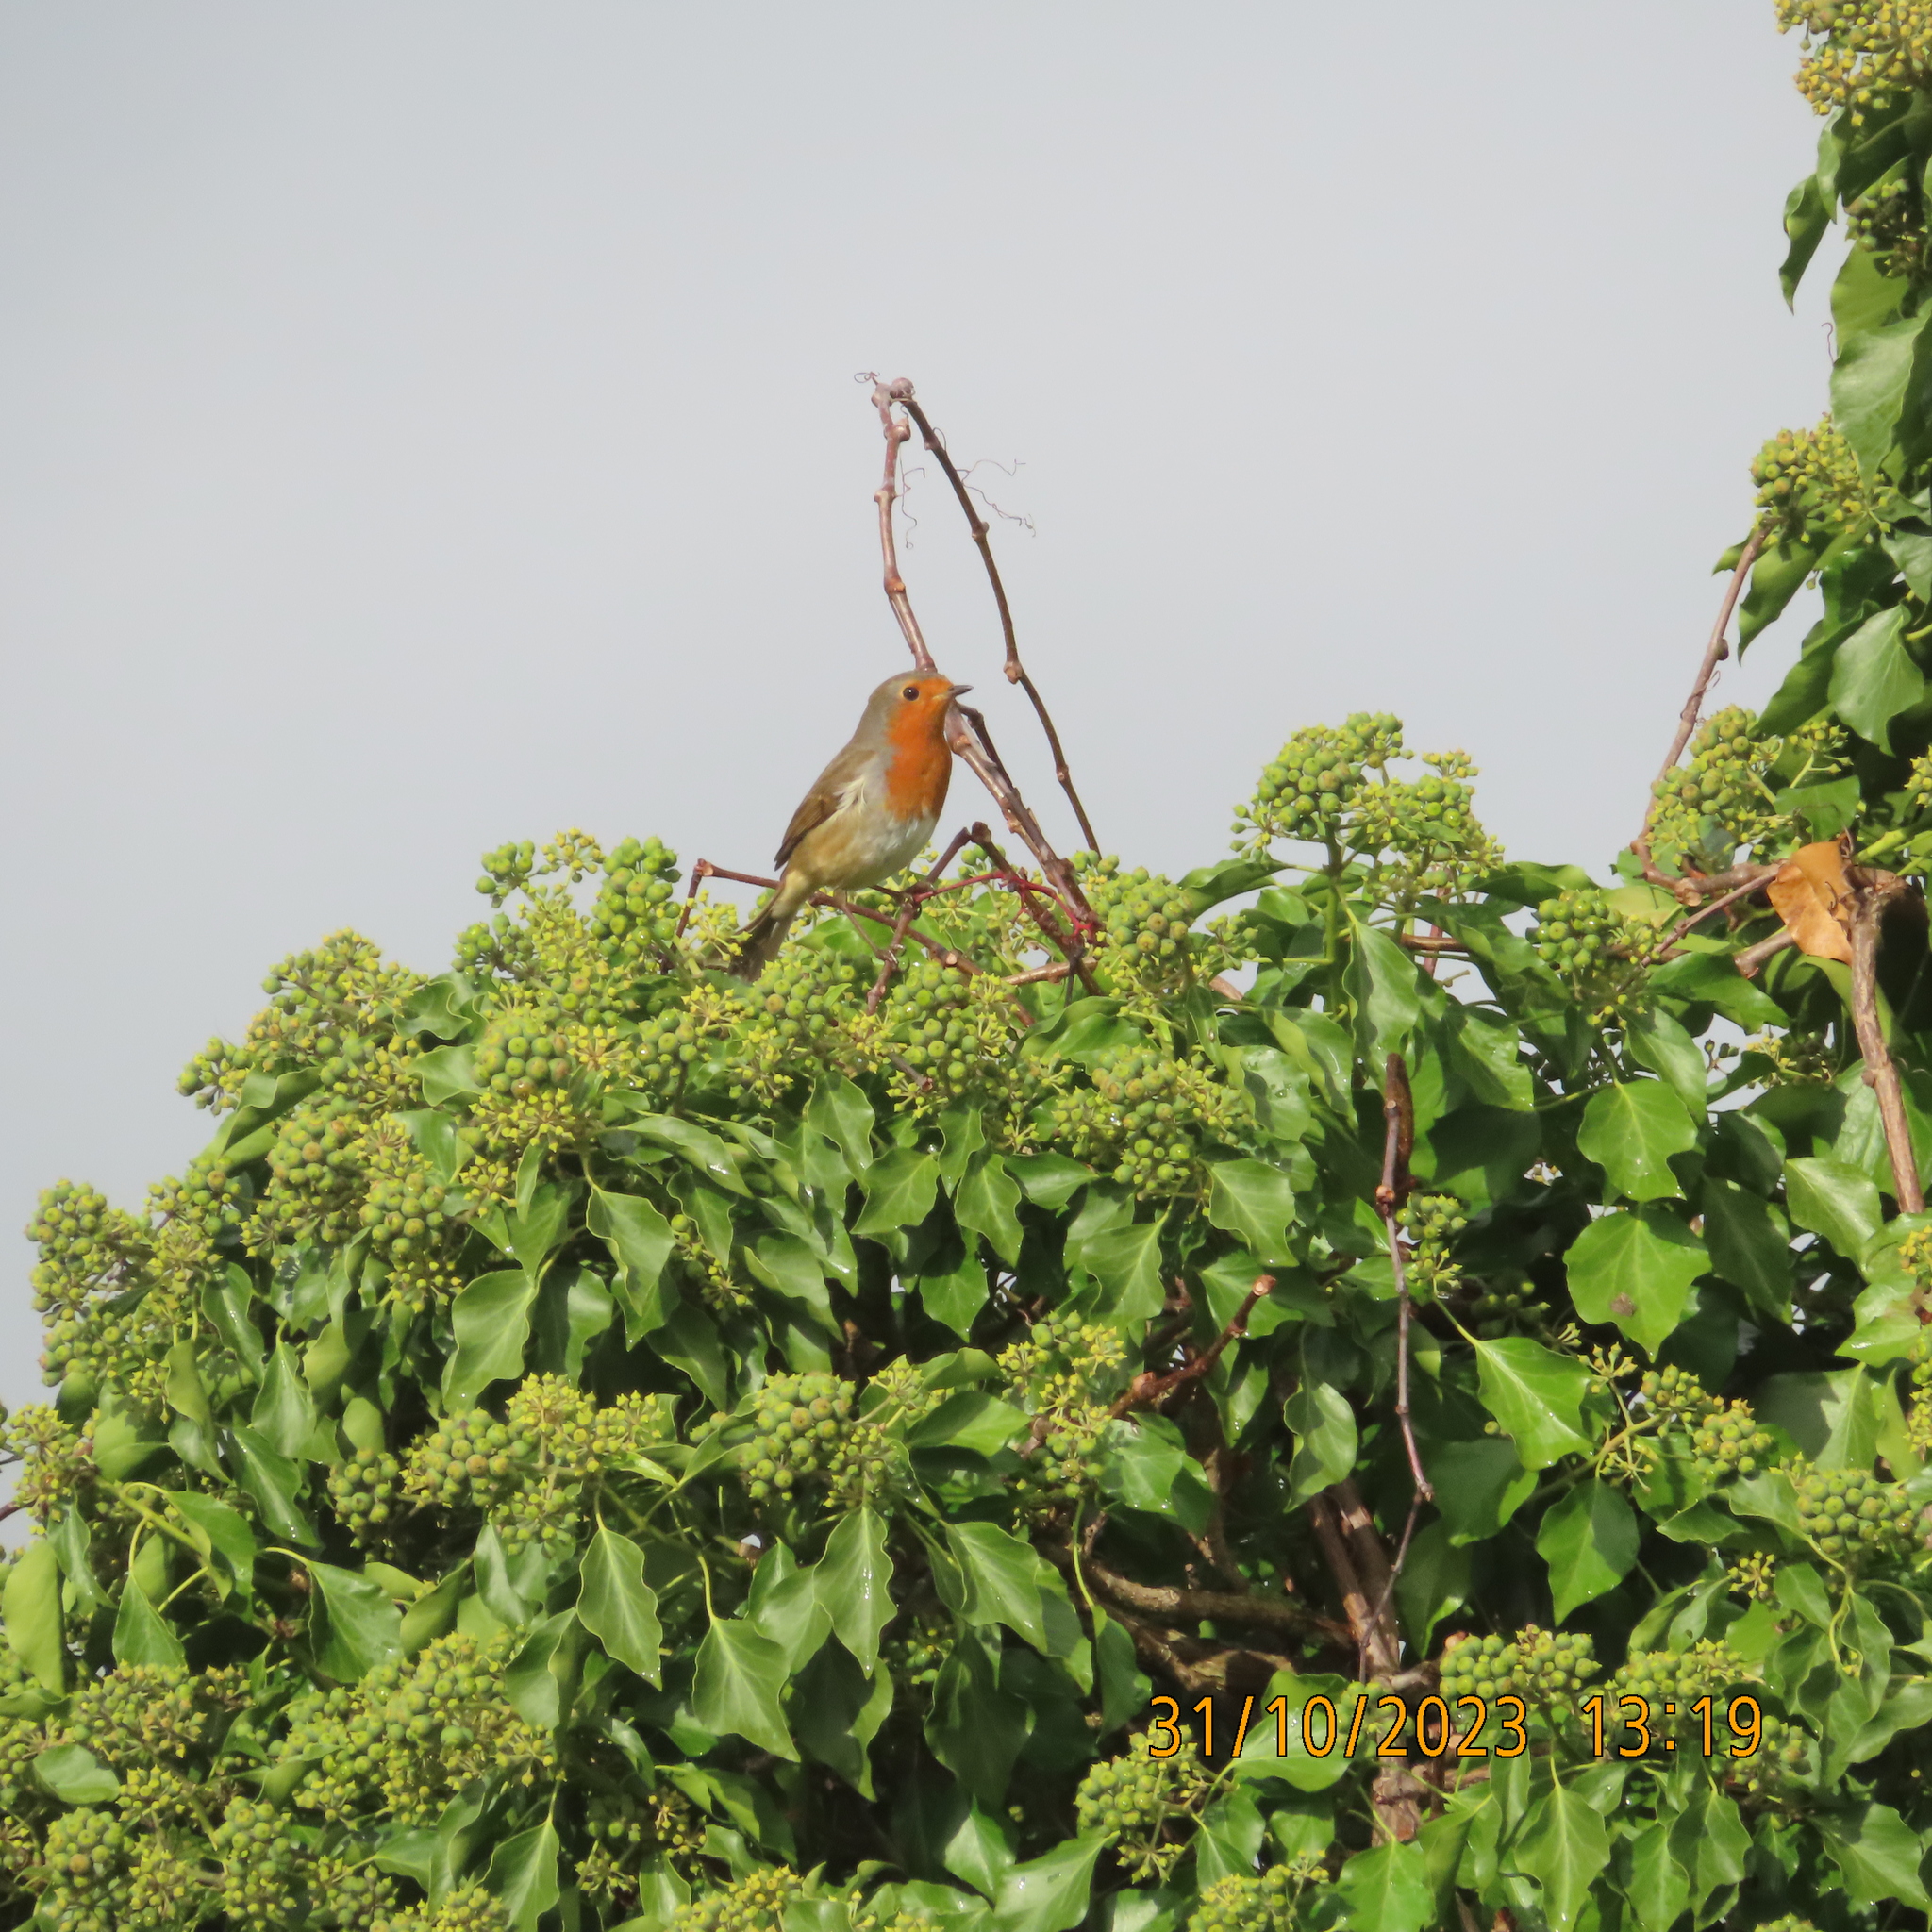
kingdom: Animalia
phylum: Chordata
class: Aves
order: Passeriformes
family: Muscicapidae
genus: Erithacus
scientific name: Erithacus rubecula
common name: European robin
